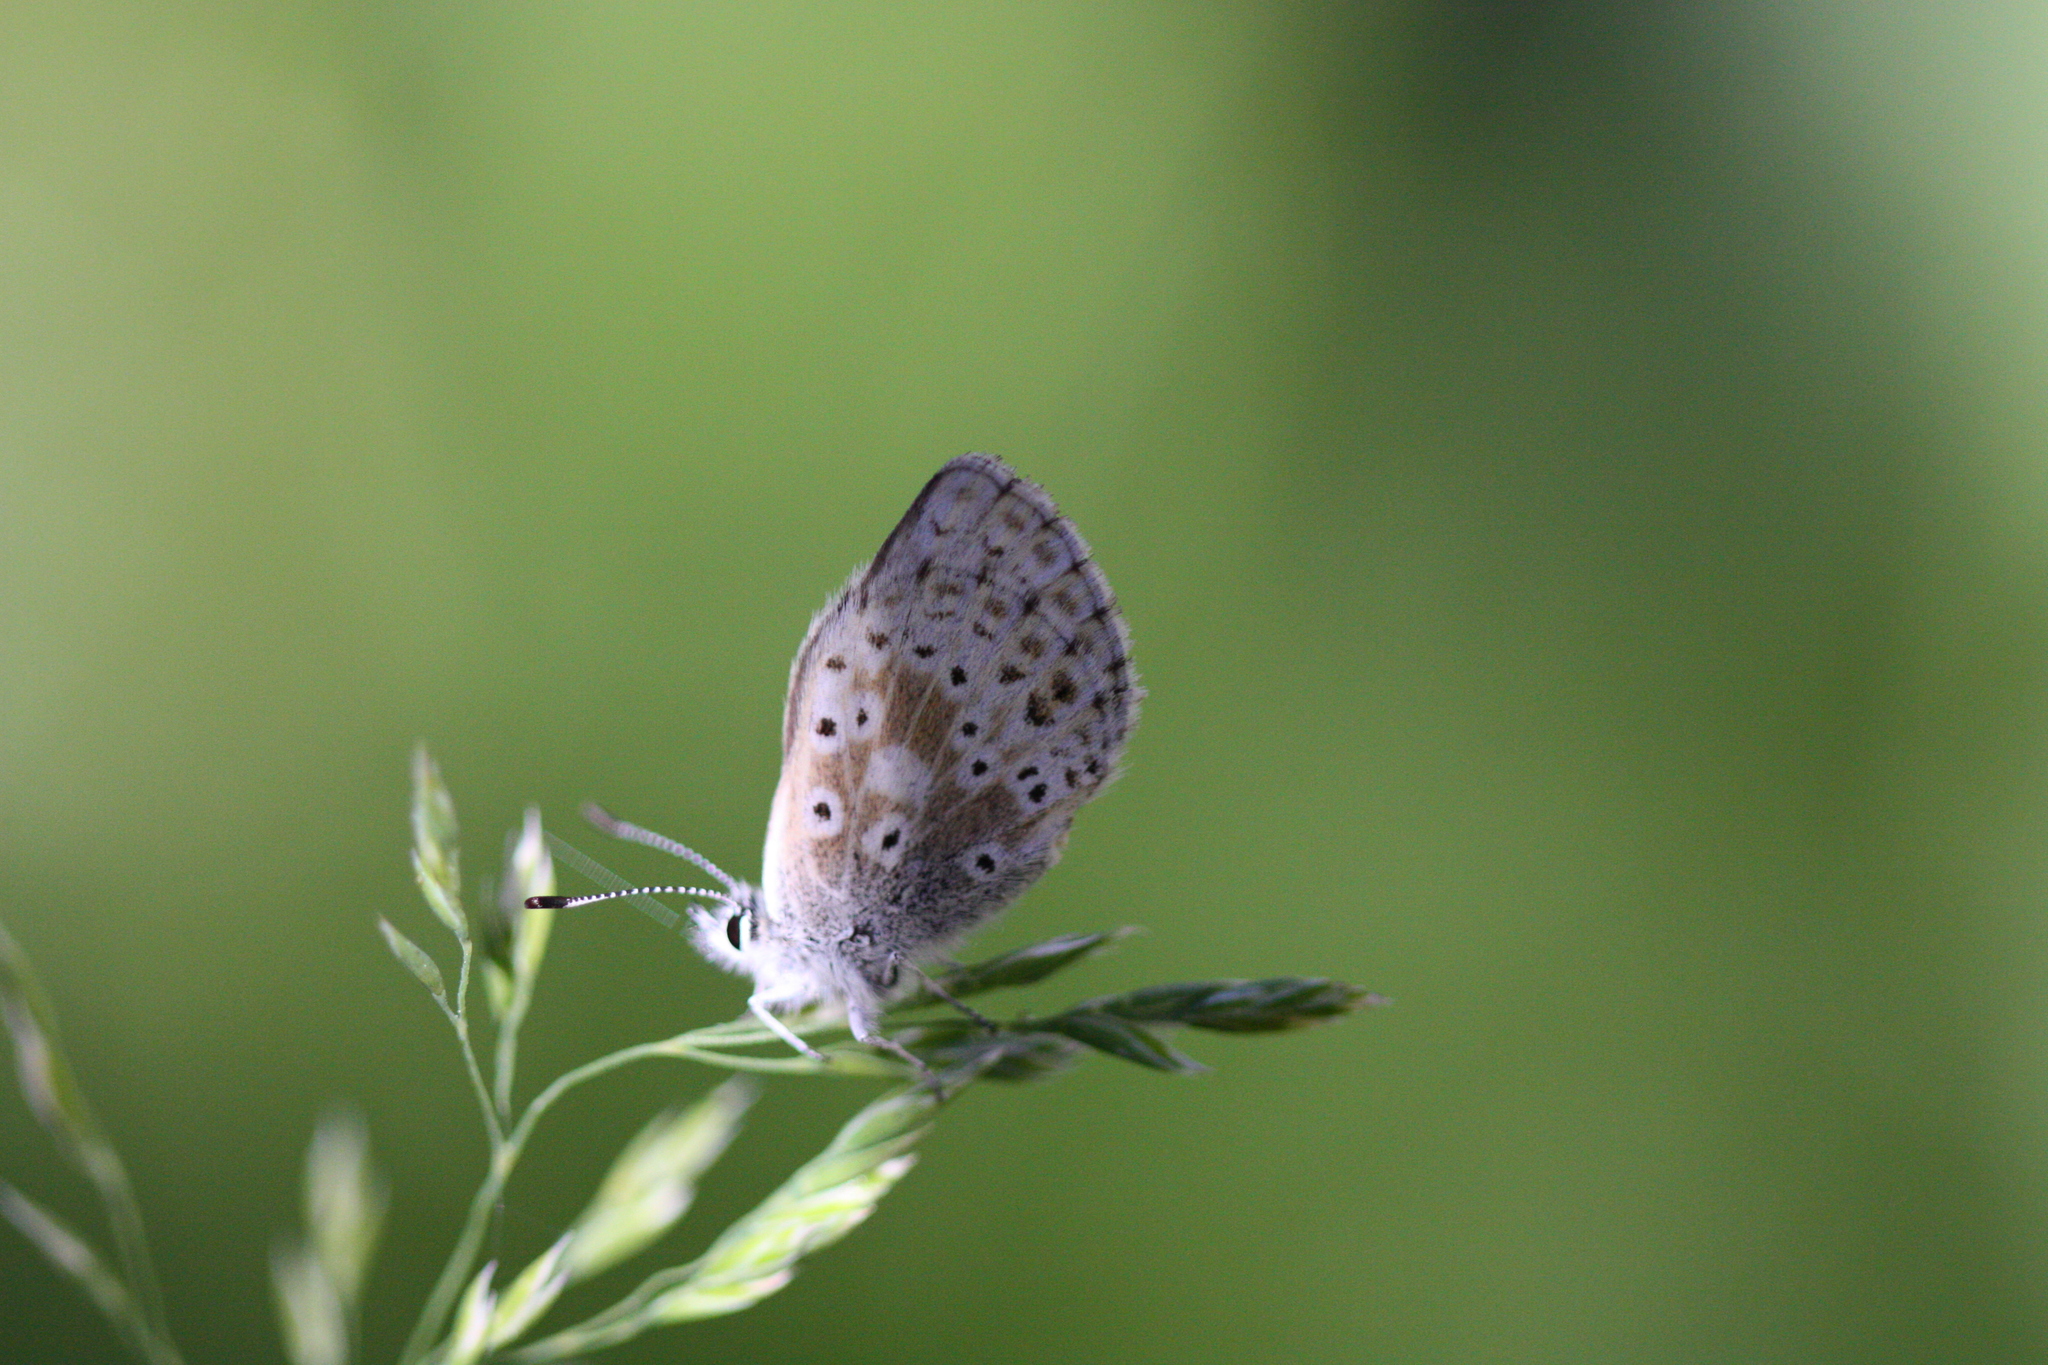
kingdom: Animalia
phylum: Arthropoda
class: Insecta
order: Lepidoptera
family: Lycaenidae
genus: Agriades
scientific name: Agriades podarce
